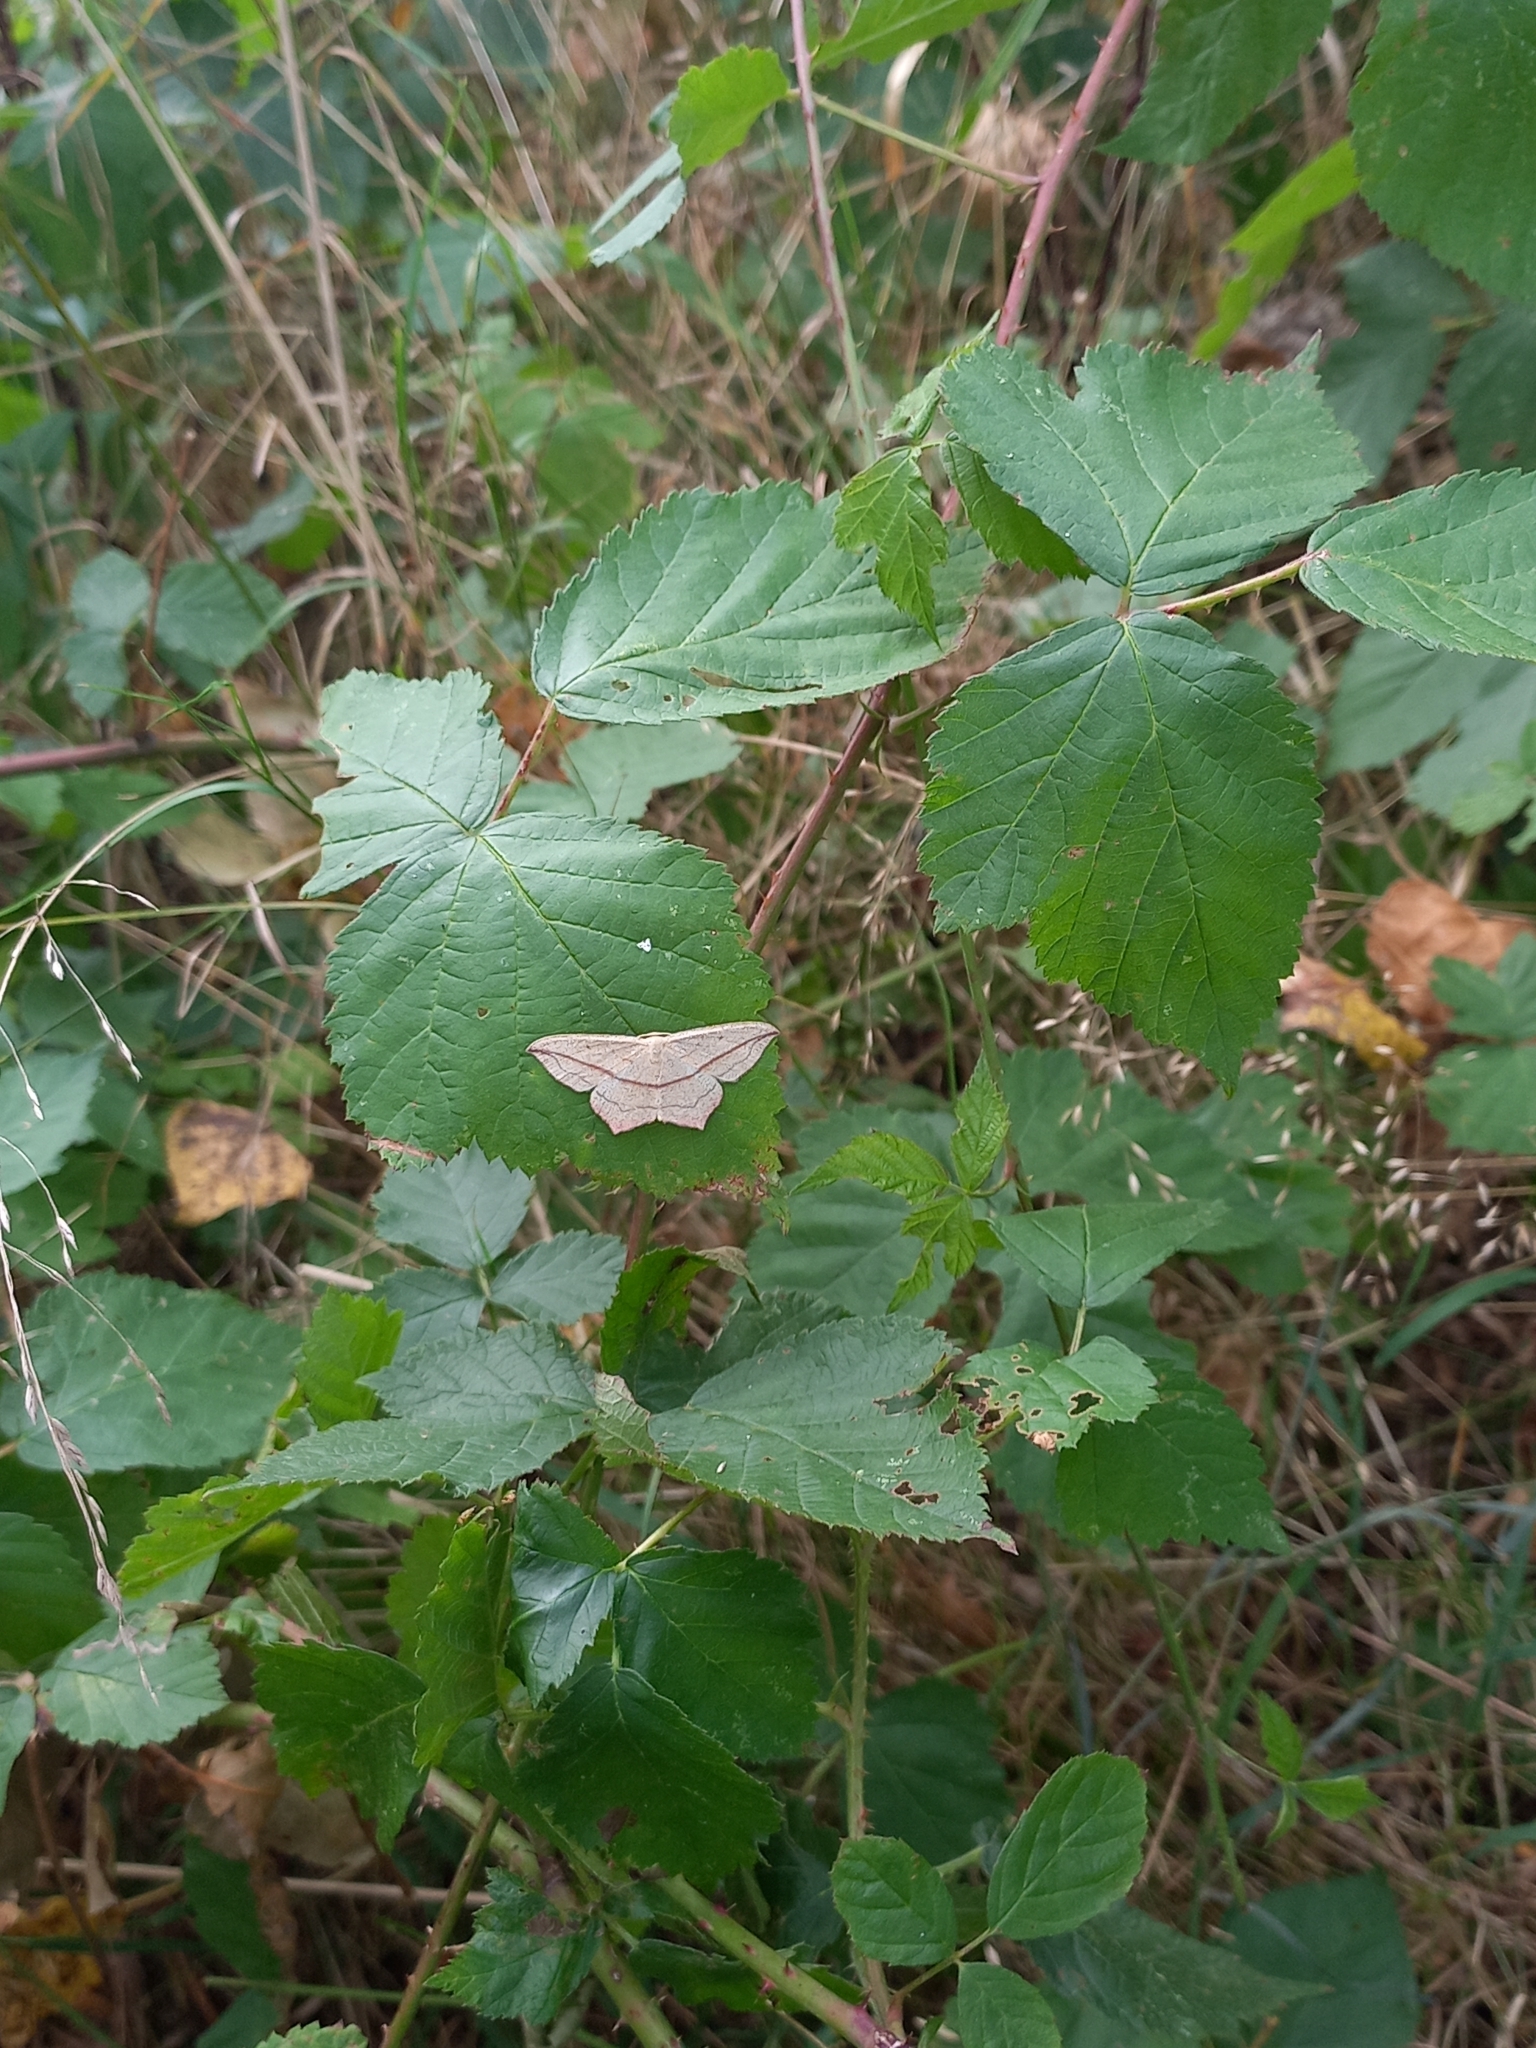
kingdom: Animalia
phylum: Arthropoda
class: Insecta
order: Lepidoptera
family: Geometridae
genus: Timandra
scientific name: Timandra comae
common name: Blood-vein
